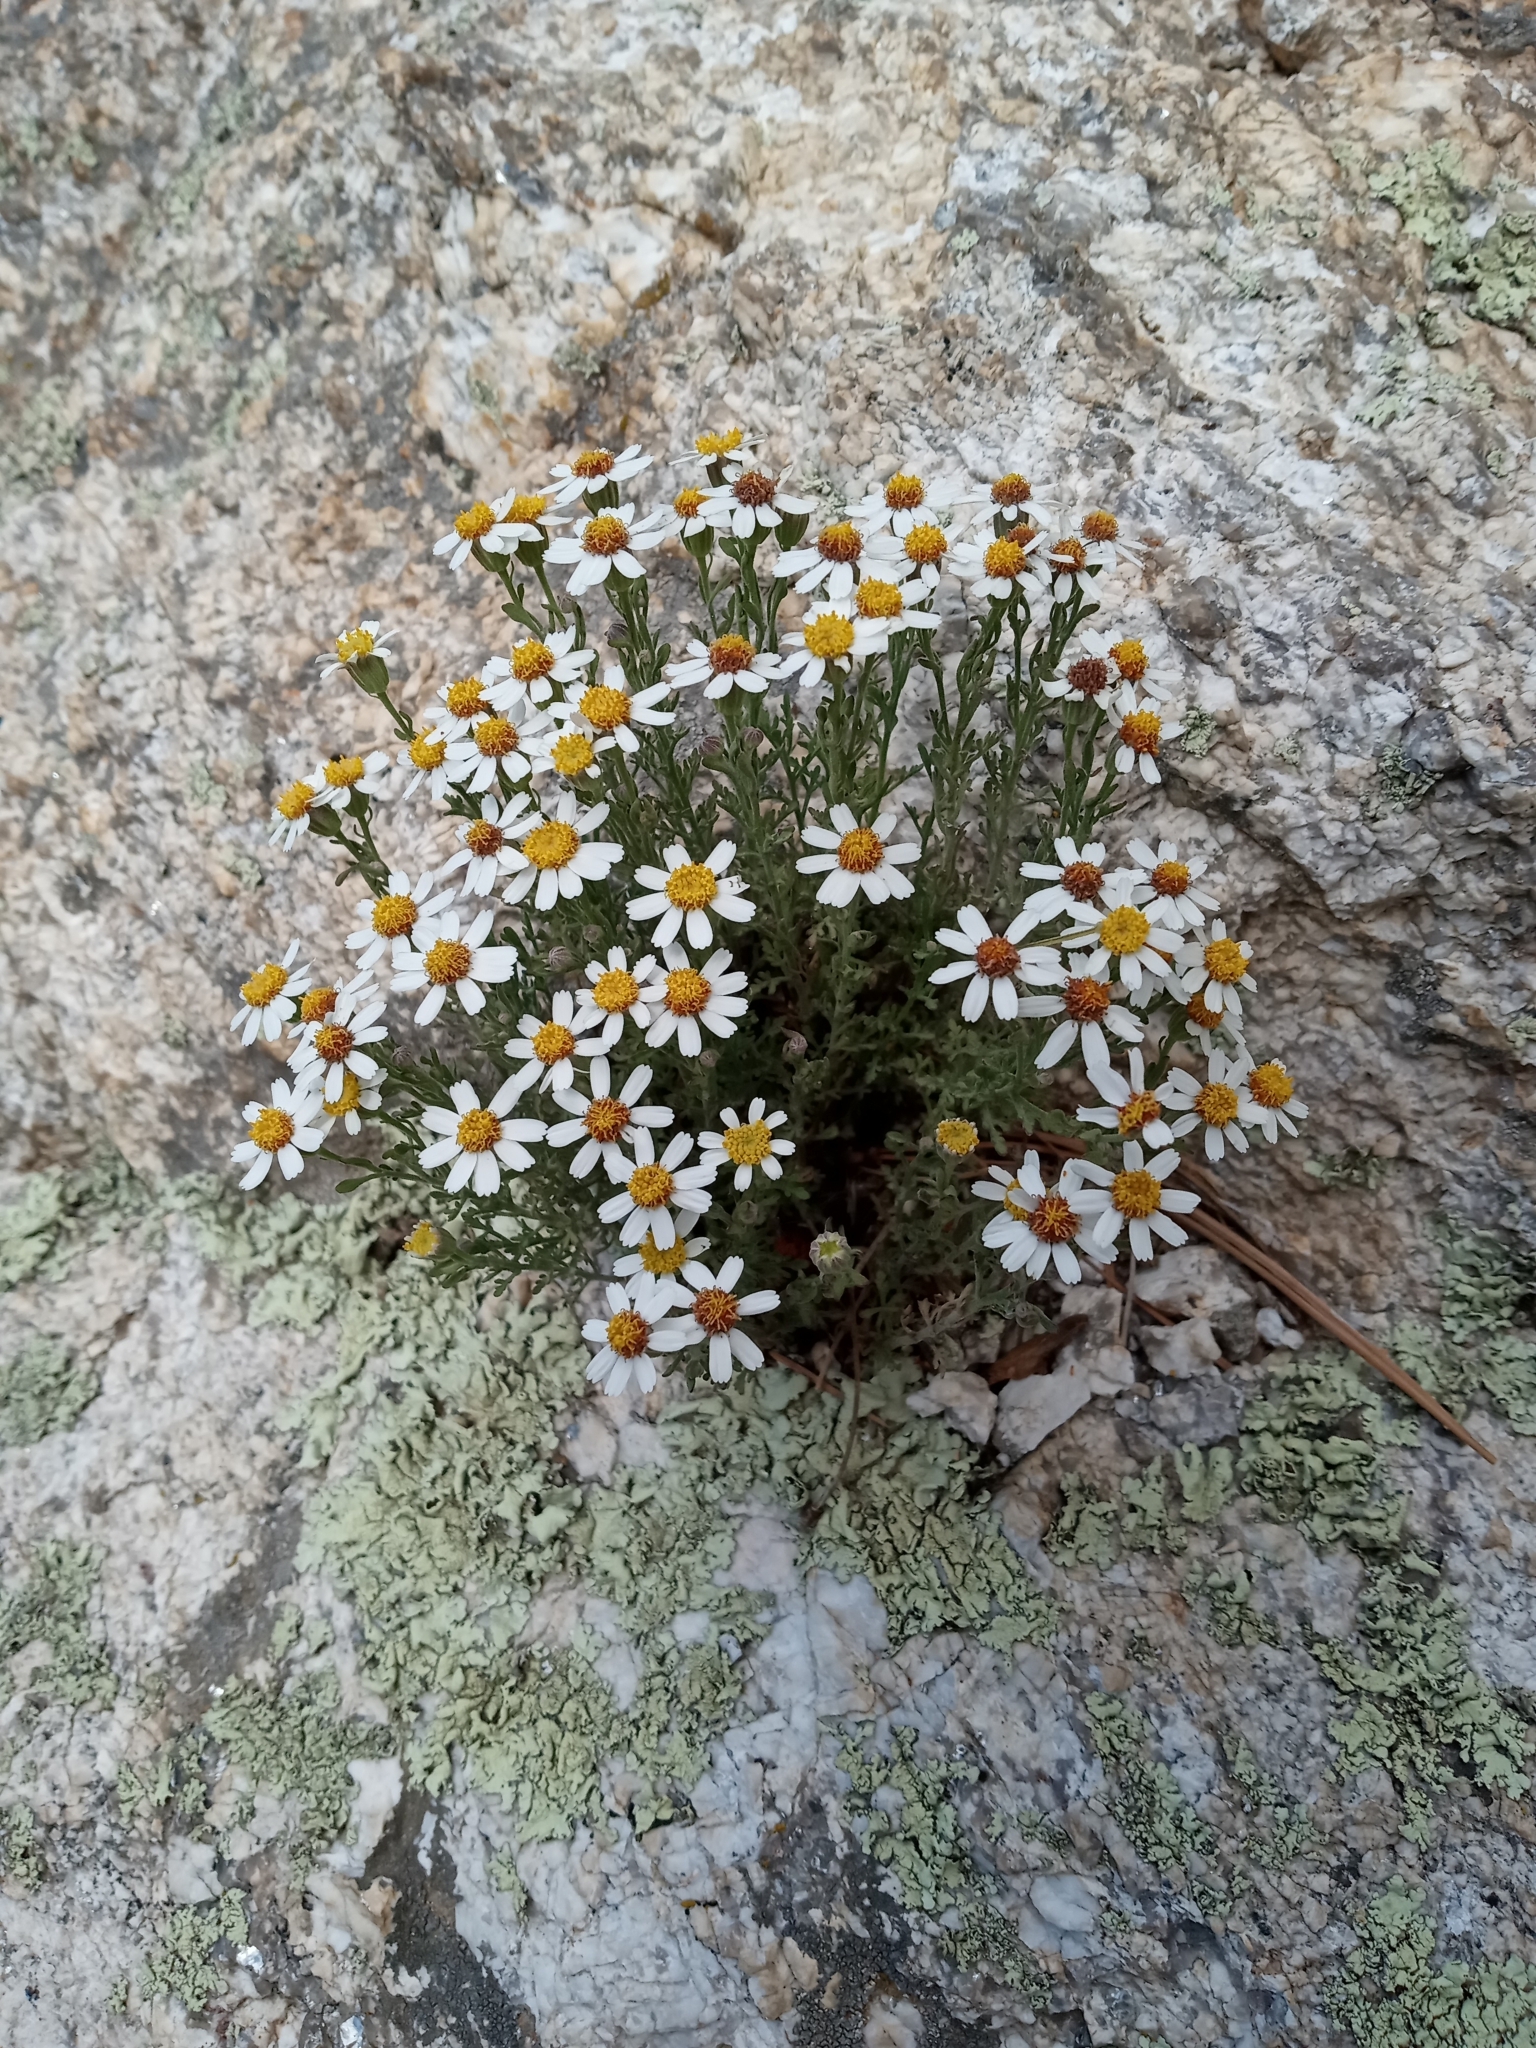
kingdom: Plantae
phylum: Tracheophyta
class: Magnoliopsida
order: Asterales
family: Asteraceae
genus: Galinsogeopsis
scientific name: Galinsogeopsis coronopifolia
